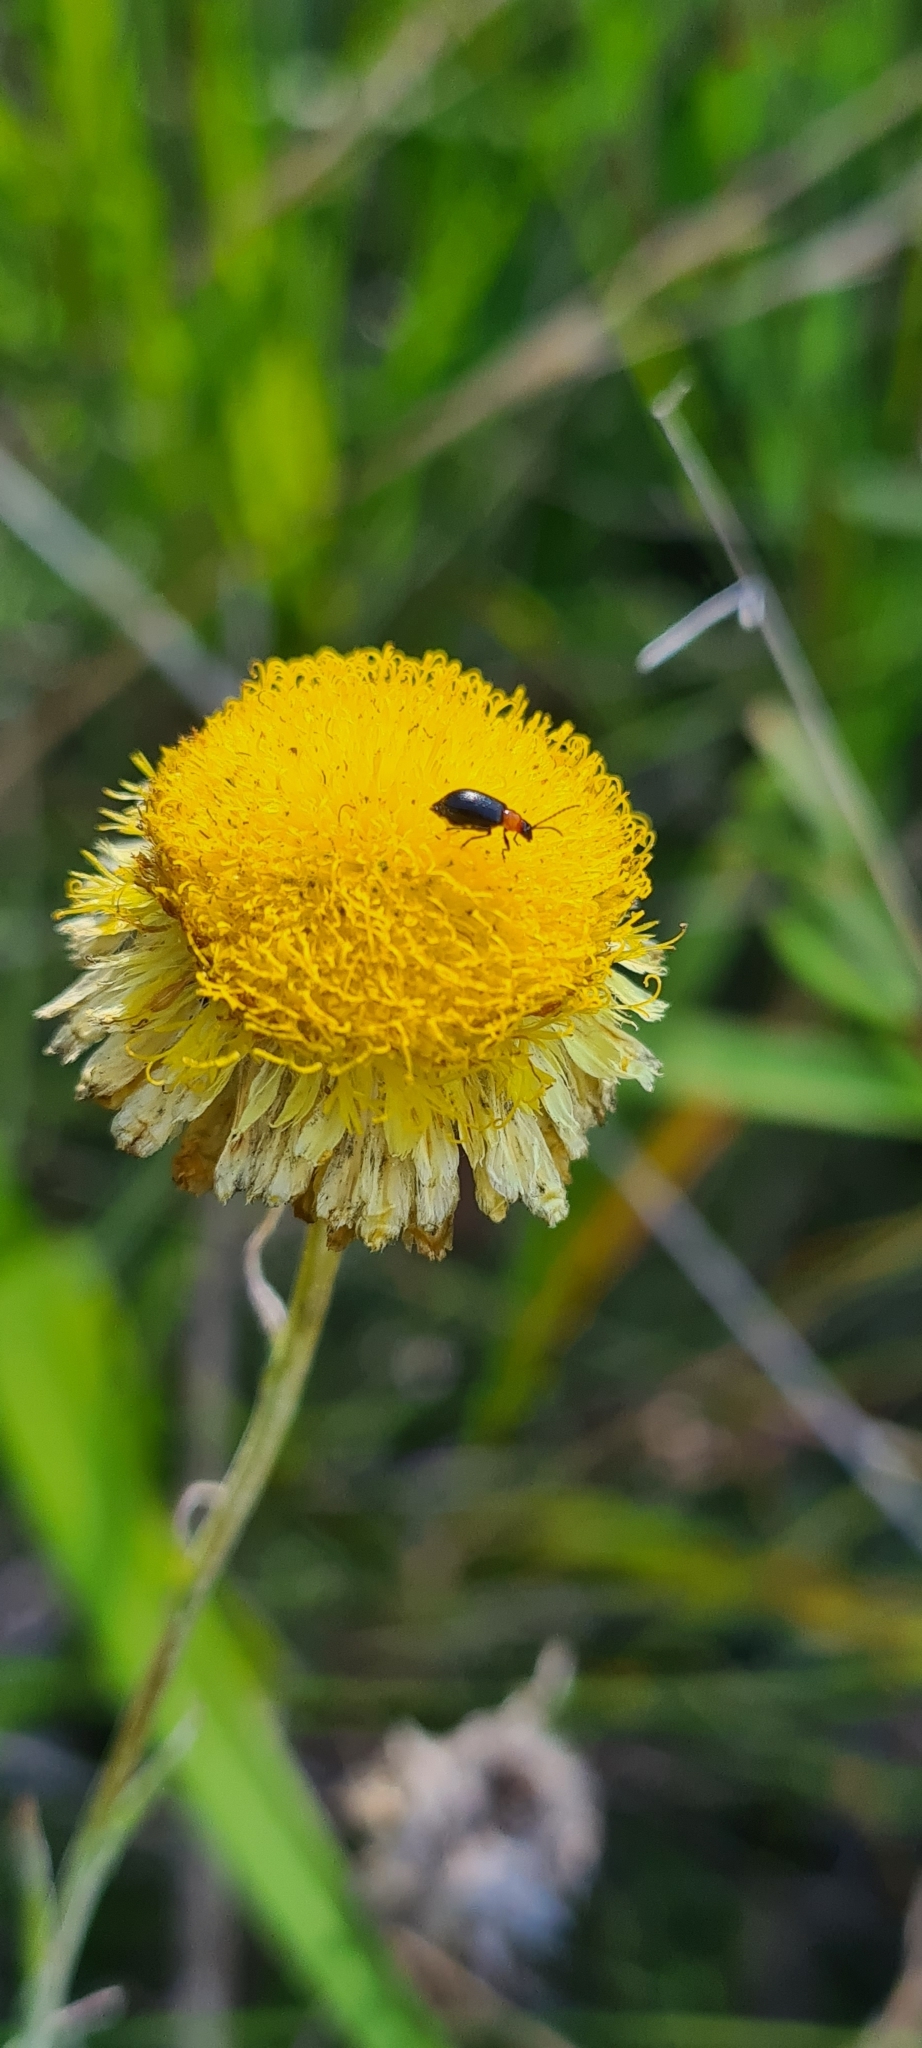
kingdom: Plantae
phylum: Tracheophyta
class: Magnoliopsida
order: Asterales
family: Asteraceae
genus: Coronidium
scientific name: Coronidium scorpioides
